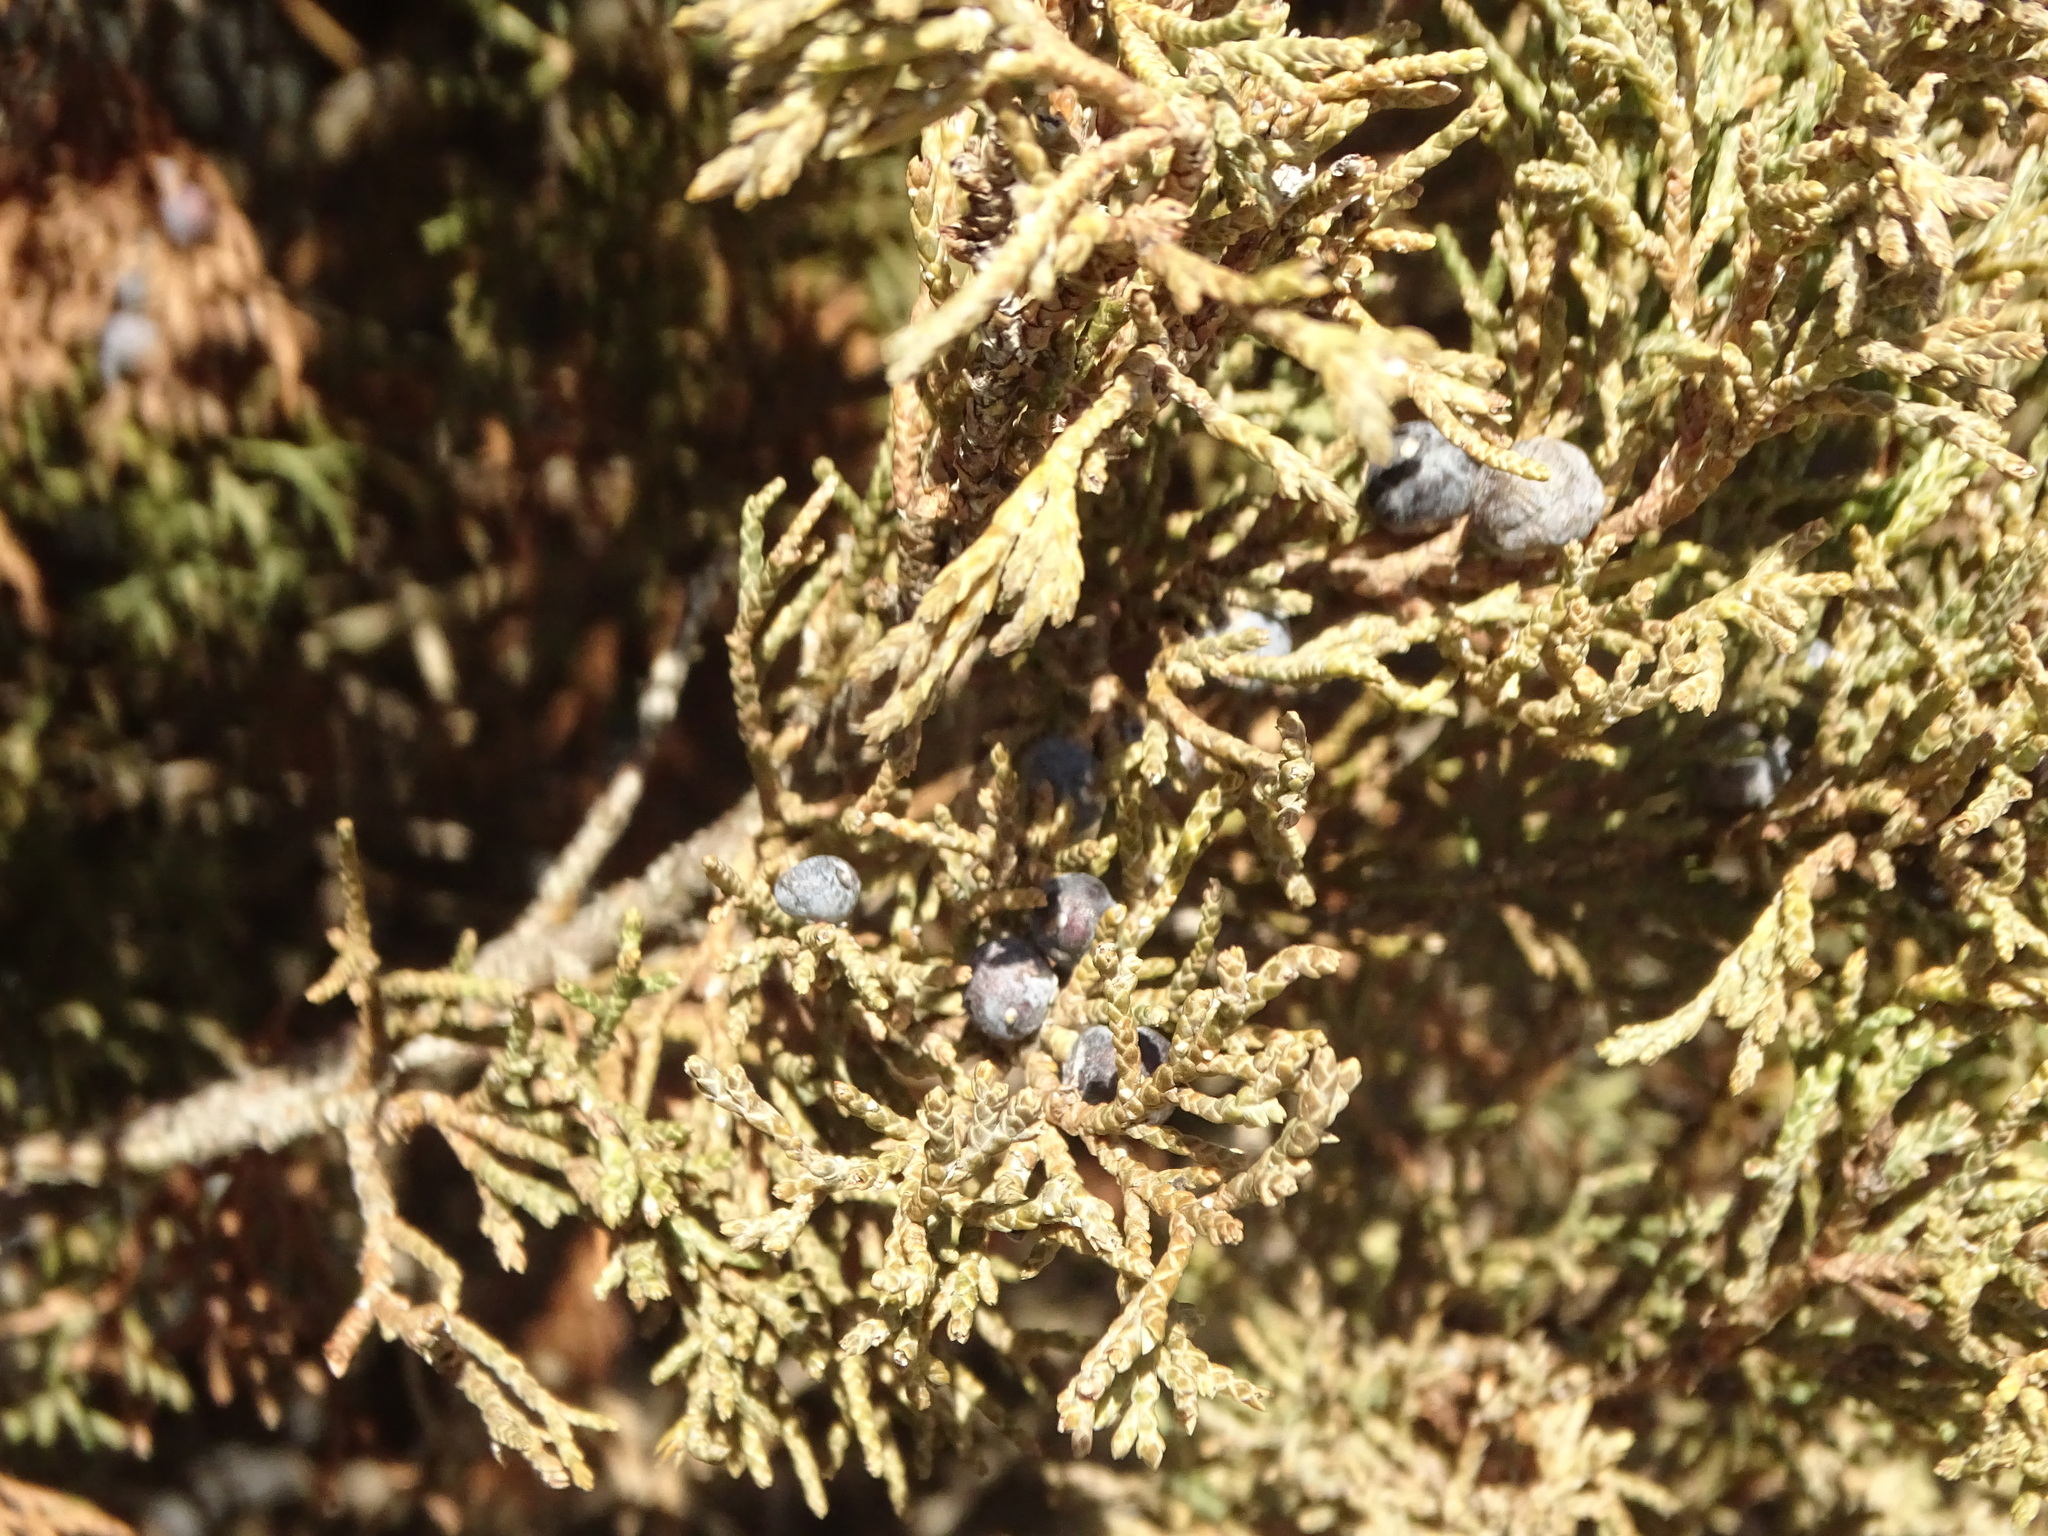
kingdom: Plantae
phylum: Tracheophyta
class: Pinopsida
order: Pinales
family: Cupressaceae
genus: Juniperus
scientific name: Juniperus virginiana
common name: Red juniper
